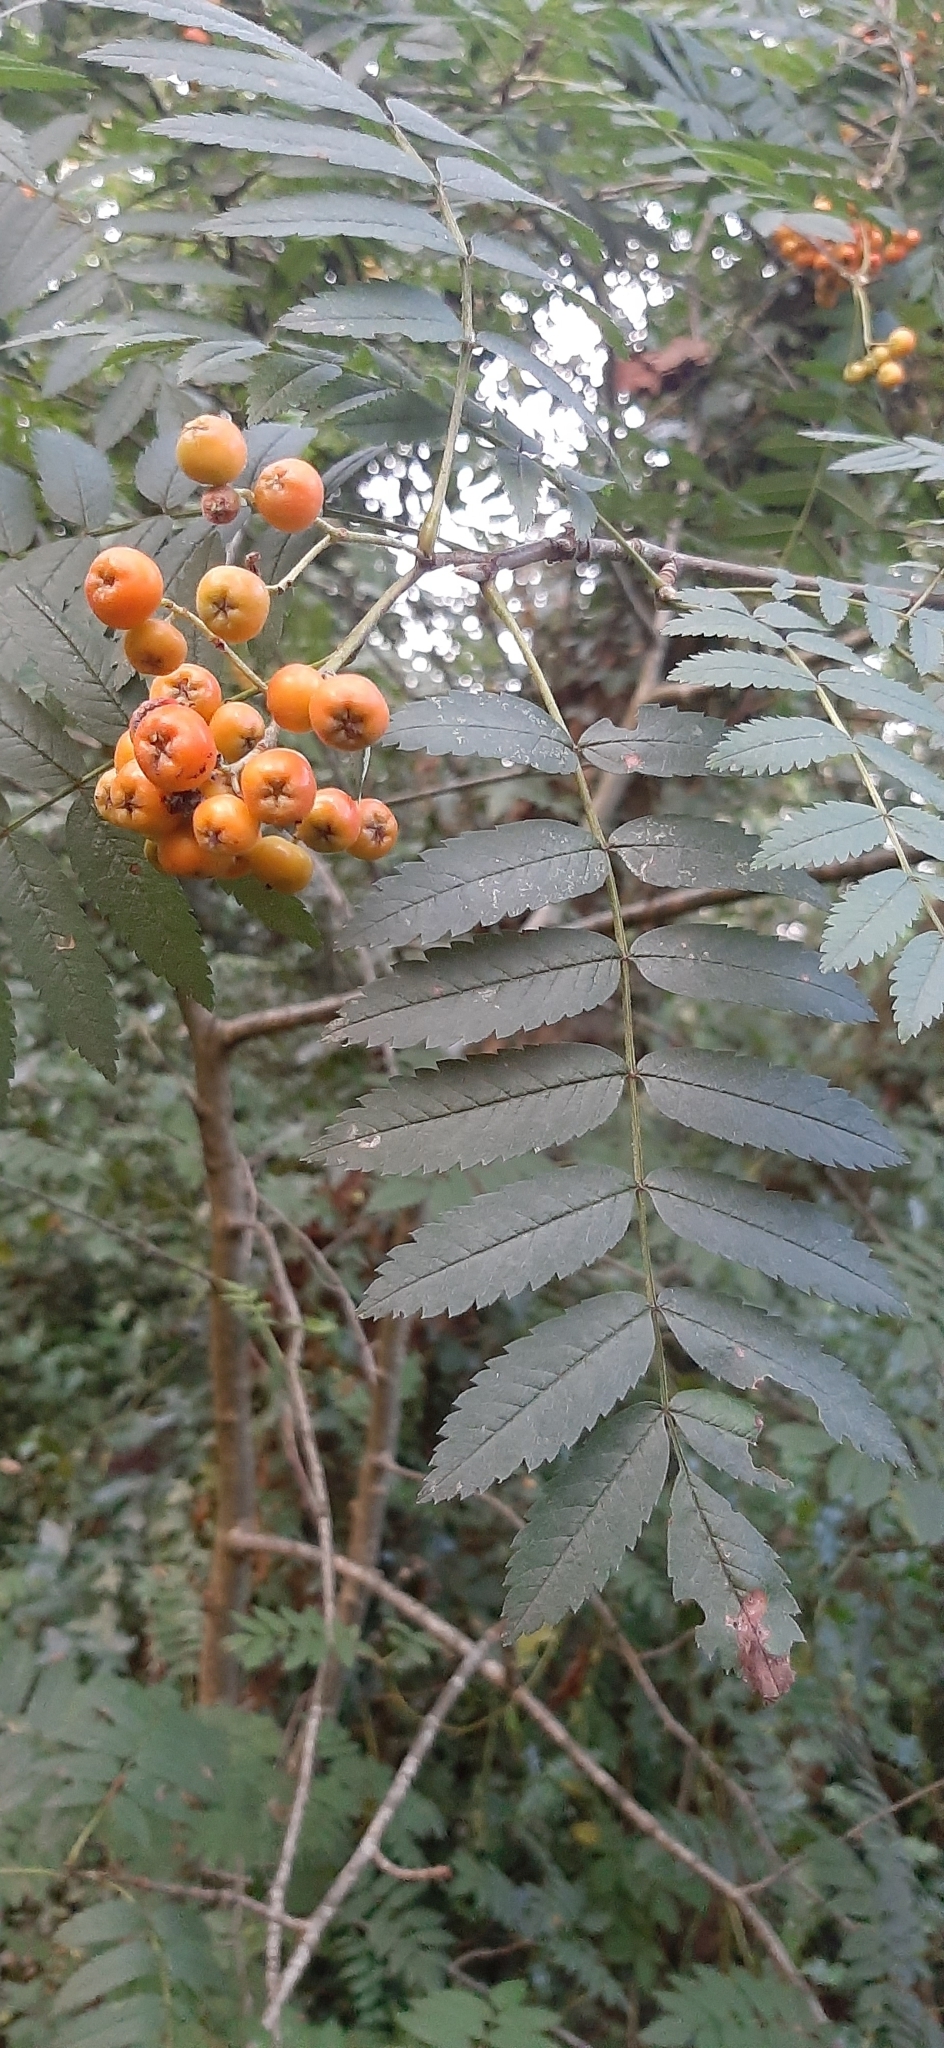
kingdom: Plantae
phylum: Tracheophyta
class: Magnoliopsida
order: Rosales
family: Rosaceae
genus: Sorbus
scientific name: Sorbus aucuparia
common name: Rowan
